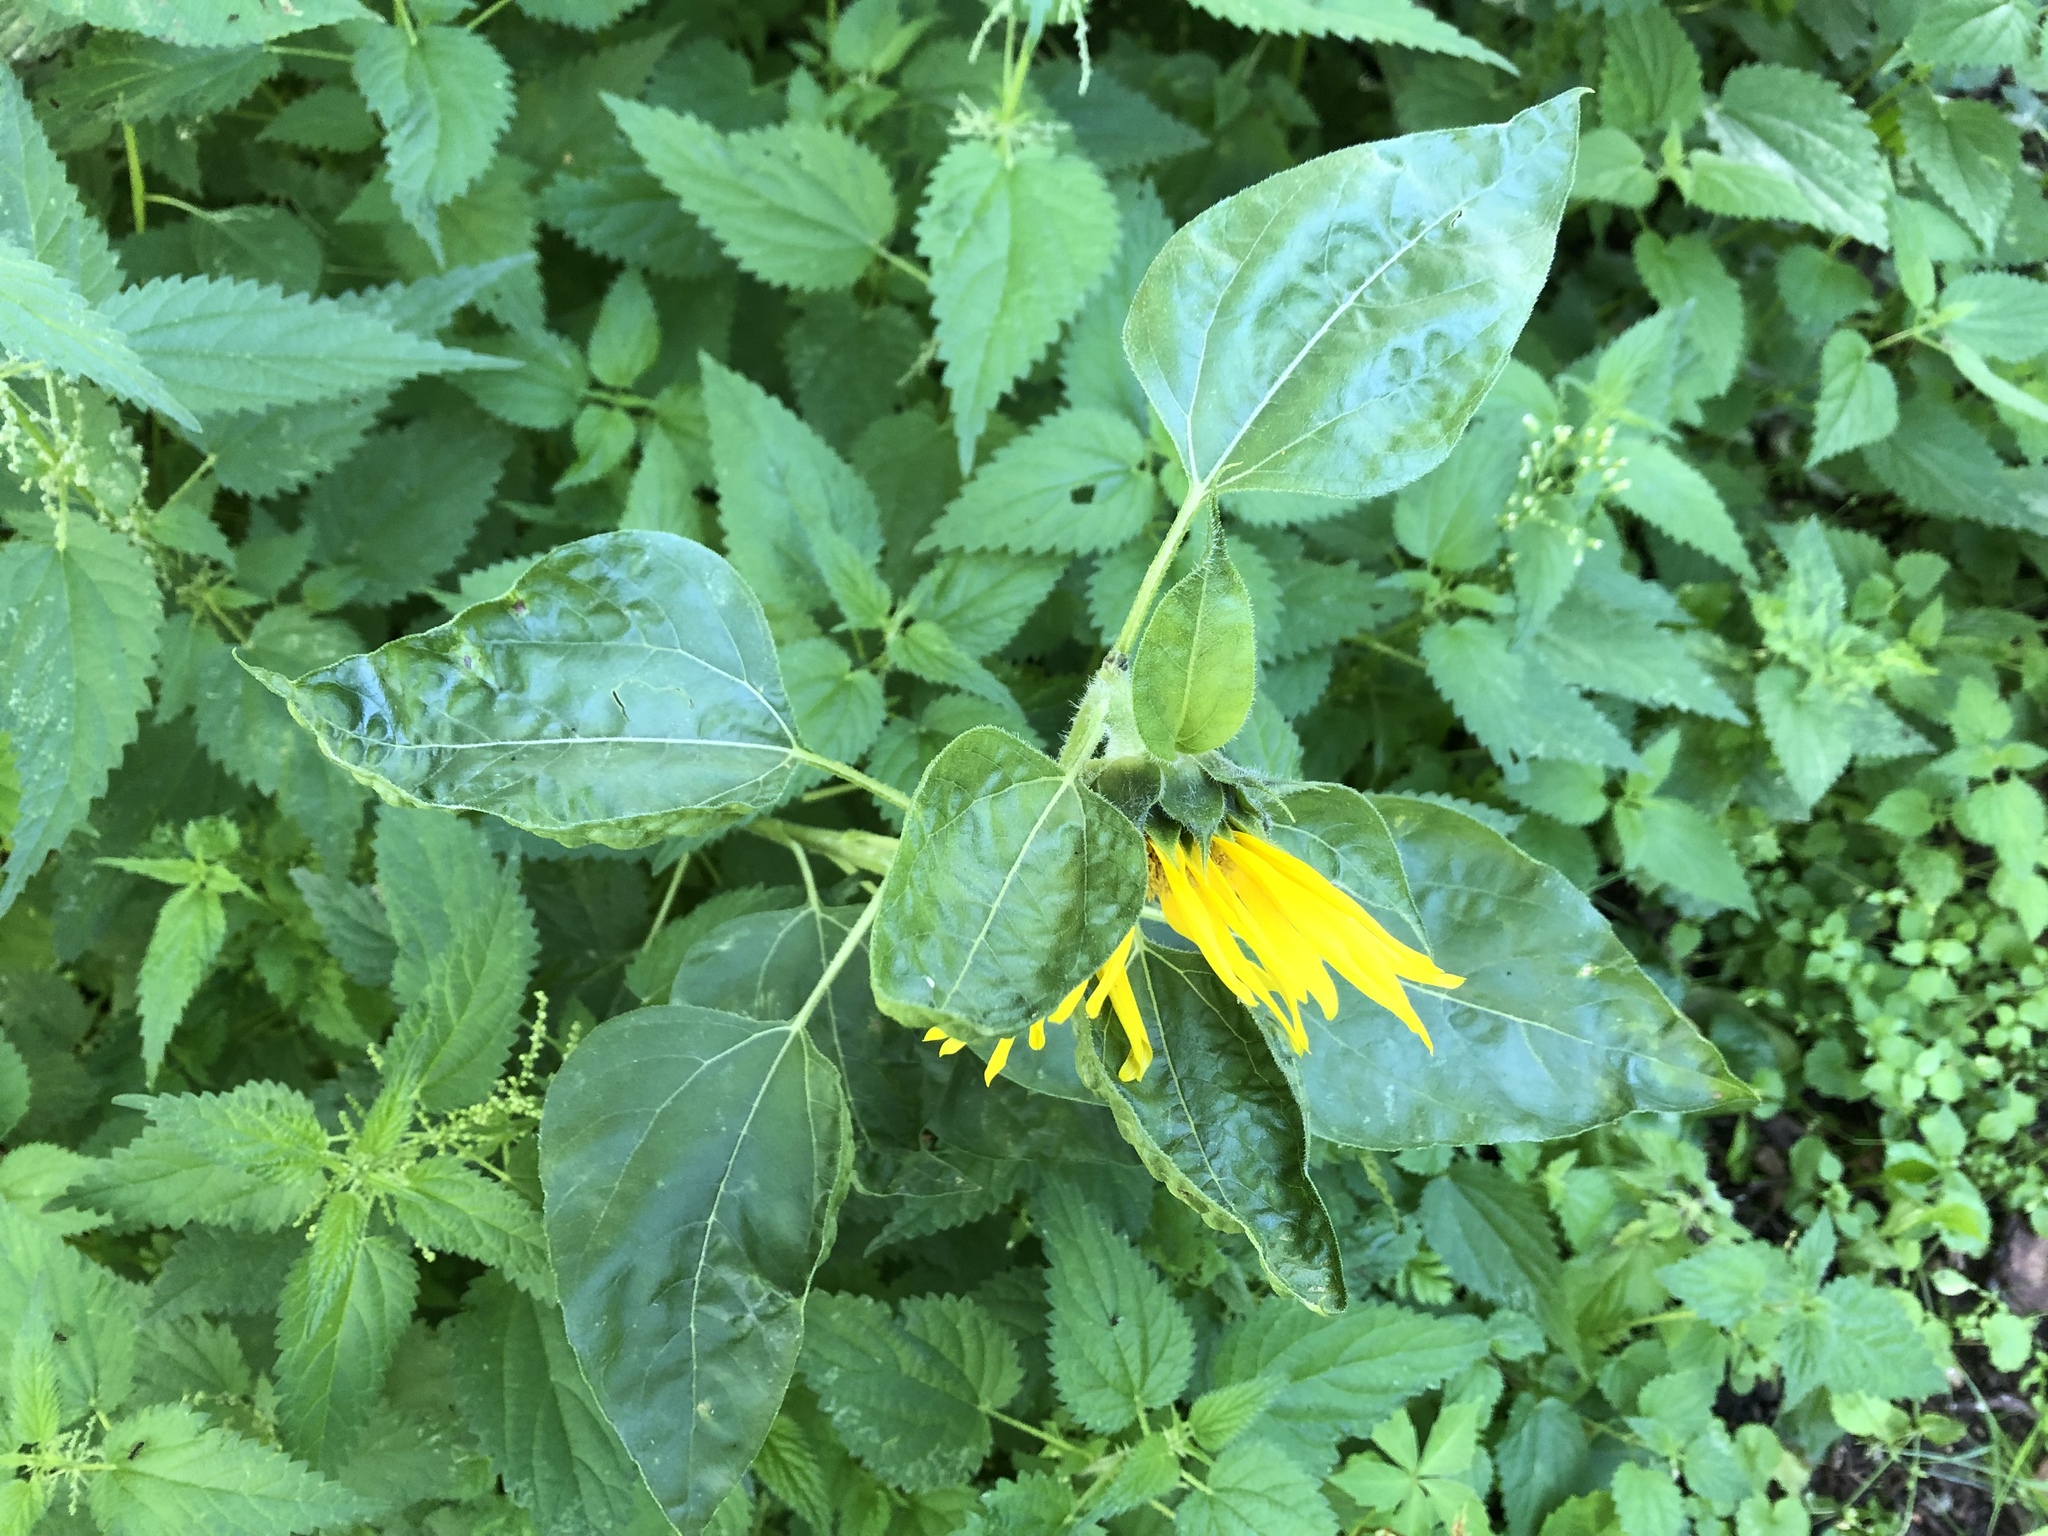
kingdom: Plantae
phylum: Tracheophyta
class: Magnoliopsida
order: Asterales
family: Asteraceae
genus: Helianthus
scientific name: Helianthus annuus
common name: Sunflower
